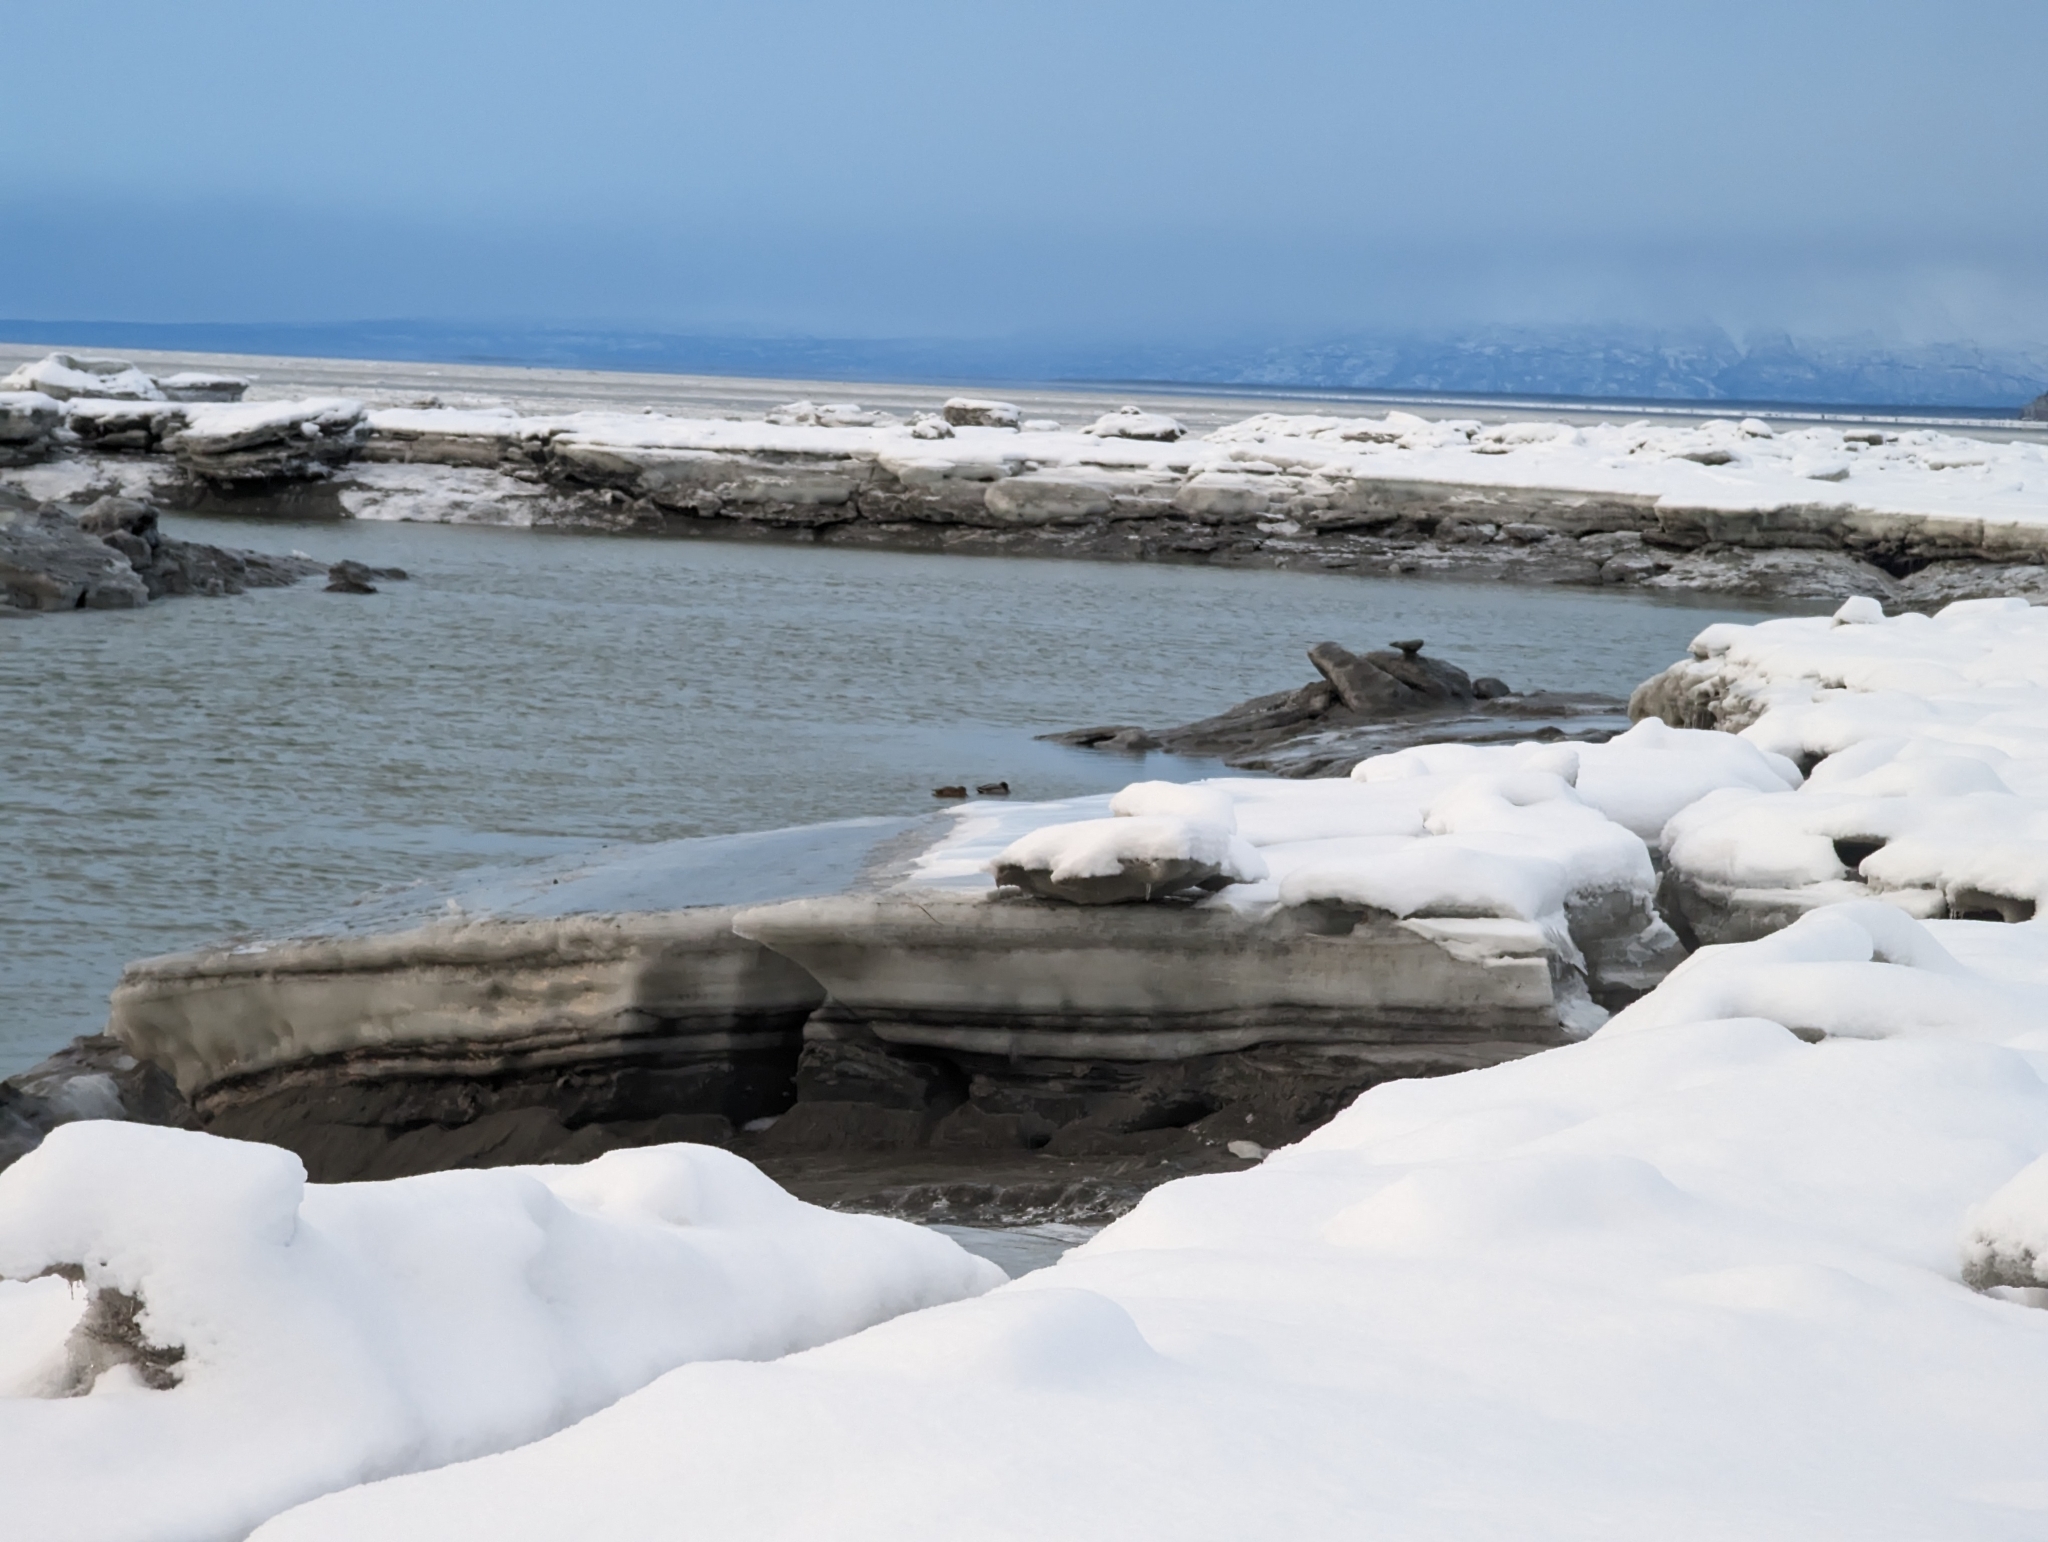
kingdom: Animalia
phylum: Chordata
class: Aves
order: Anseriformes
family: Anatidae
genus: Anas
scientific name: Anas platyrhynchos
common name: Mallard
